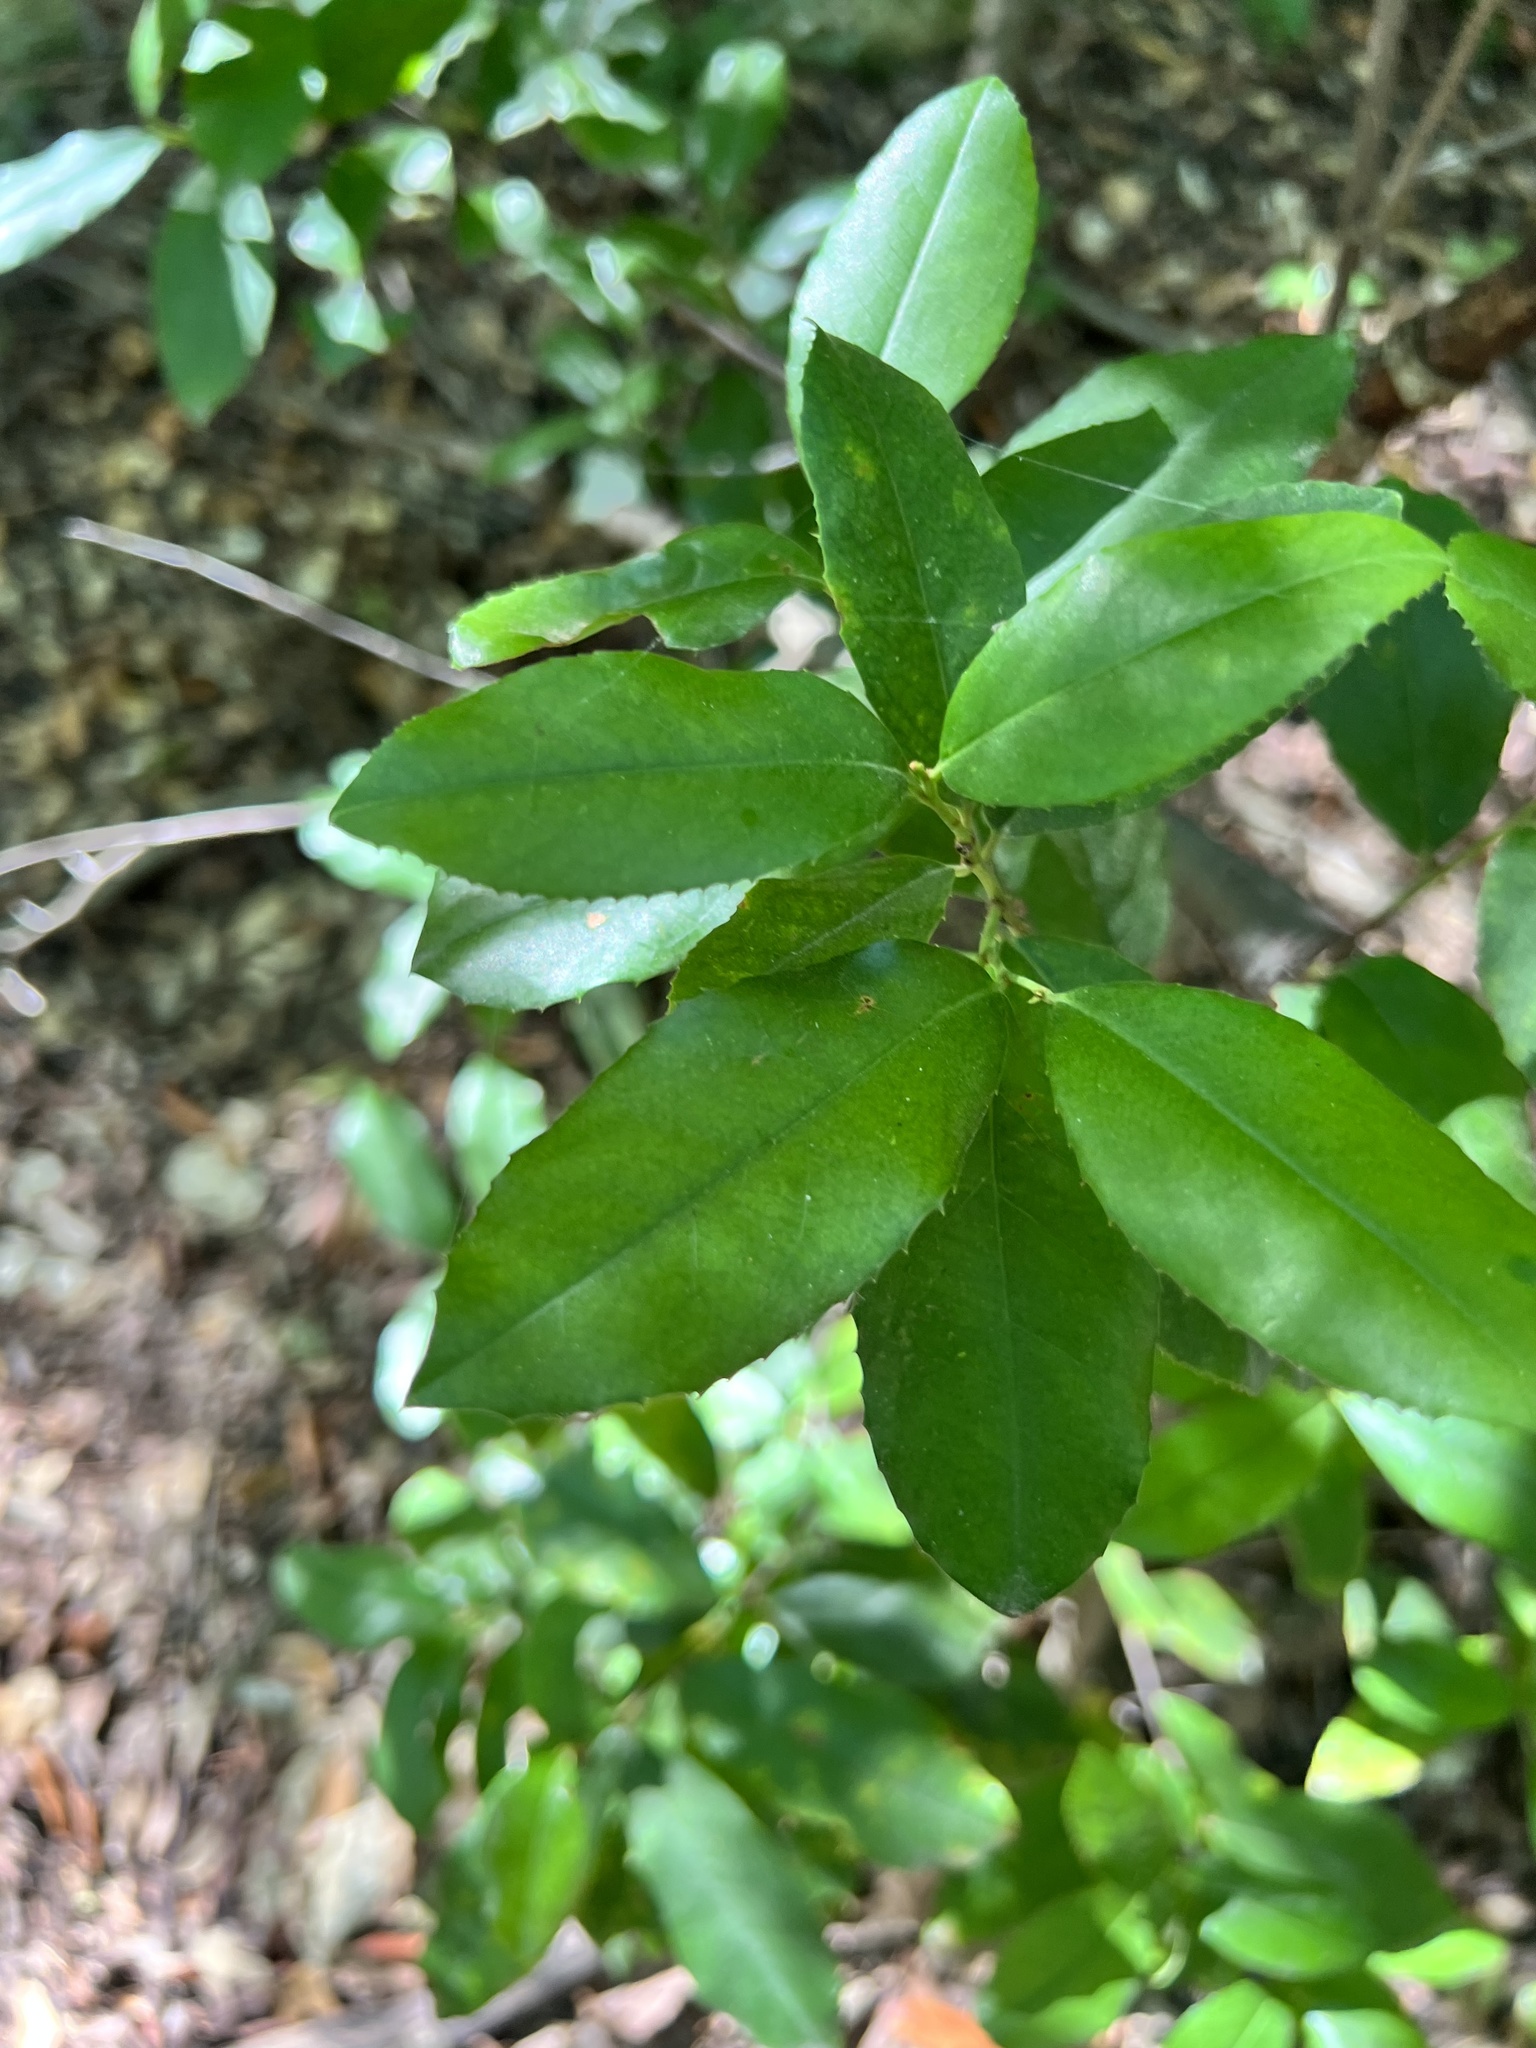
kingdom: Plantae
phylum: Tracheophyta
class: Magnoliopsida
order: Rosales
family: Rosaceae
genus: Prunus
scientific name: Prunus caroliniana
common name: Carolina laurel cherry
